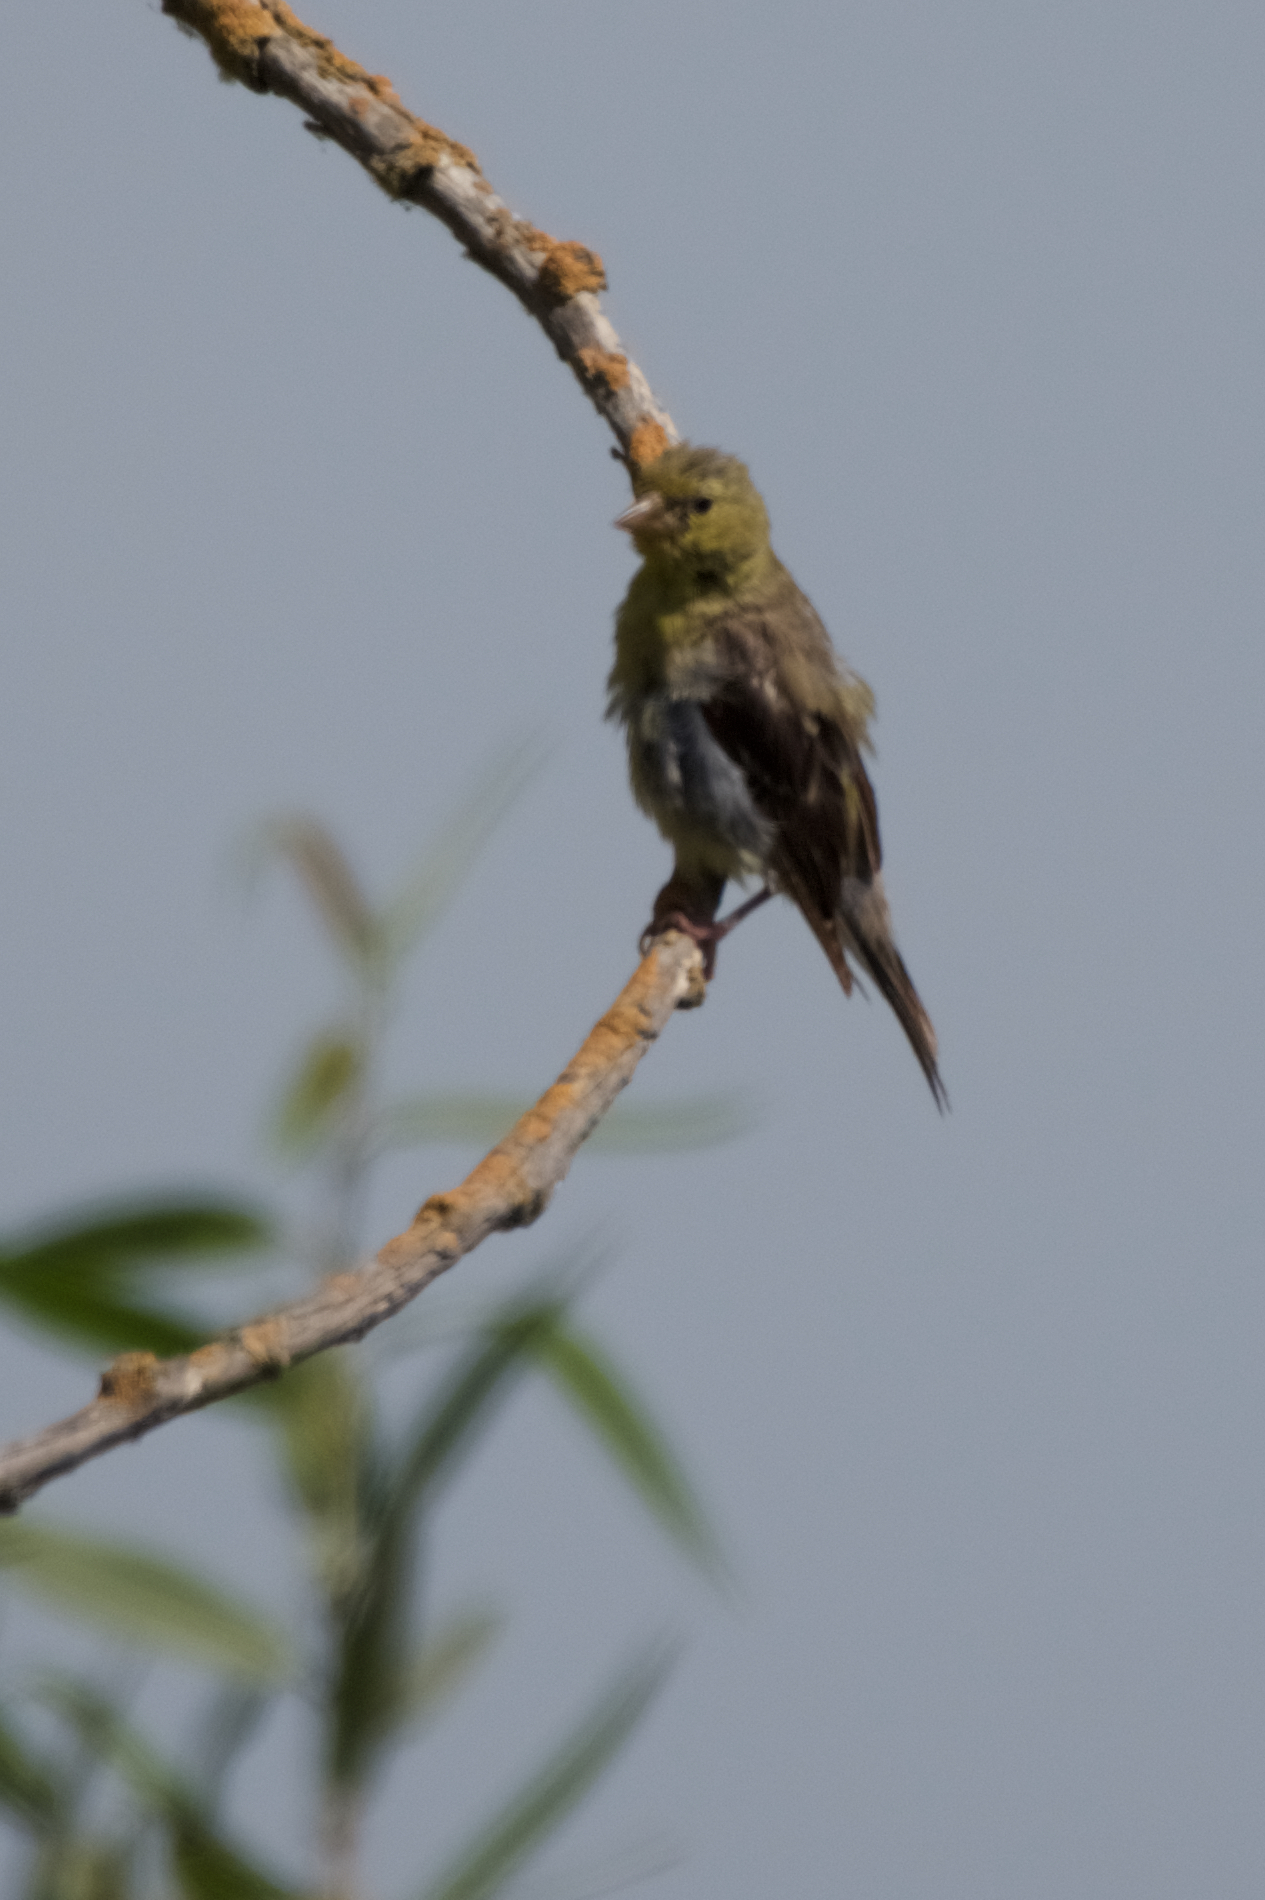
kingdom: Animalia
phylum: Chordata
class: Aves
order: Passeriformes
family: Fringillidae
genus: Spinus
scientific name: Spinus psaltria
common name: Lesser goldfinch
